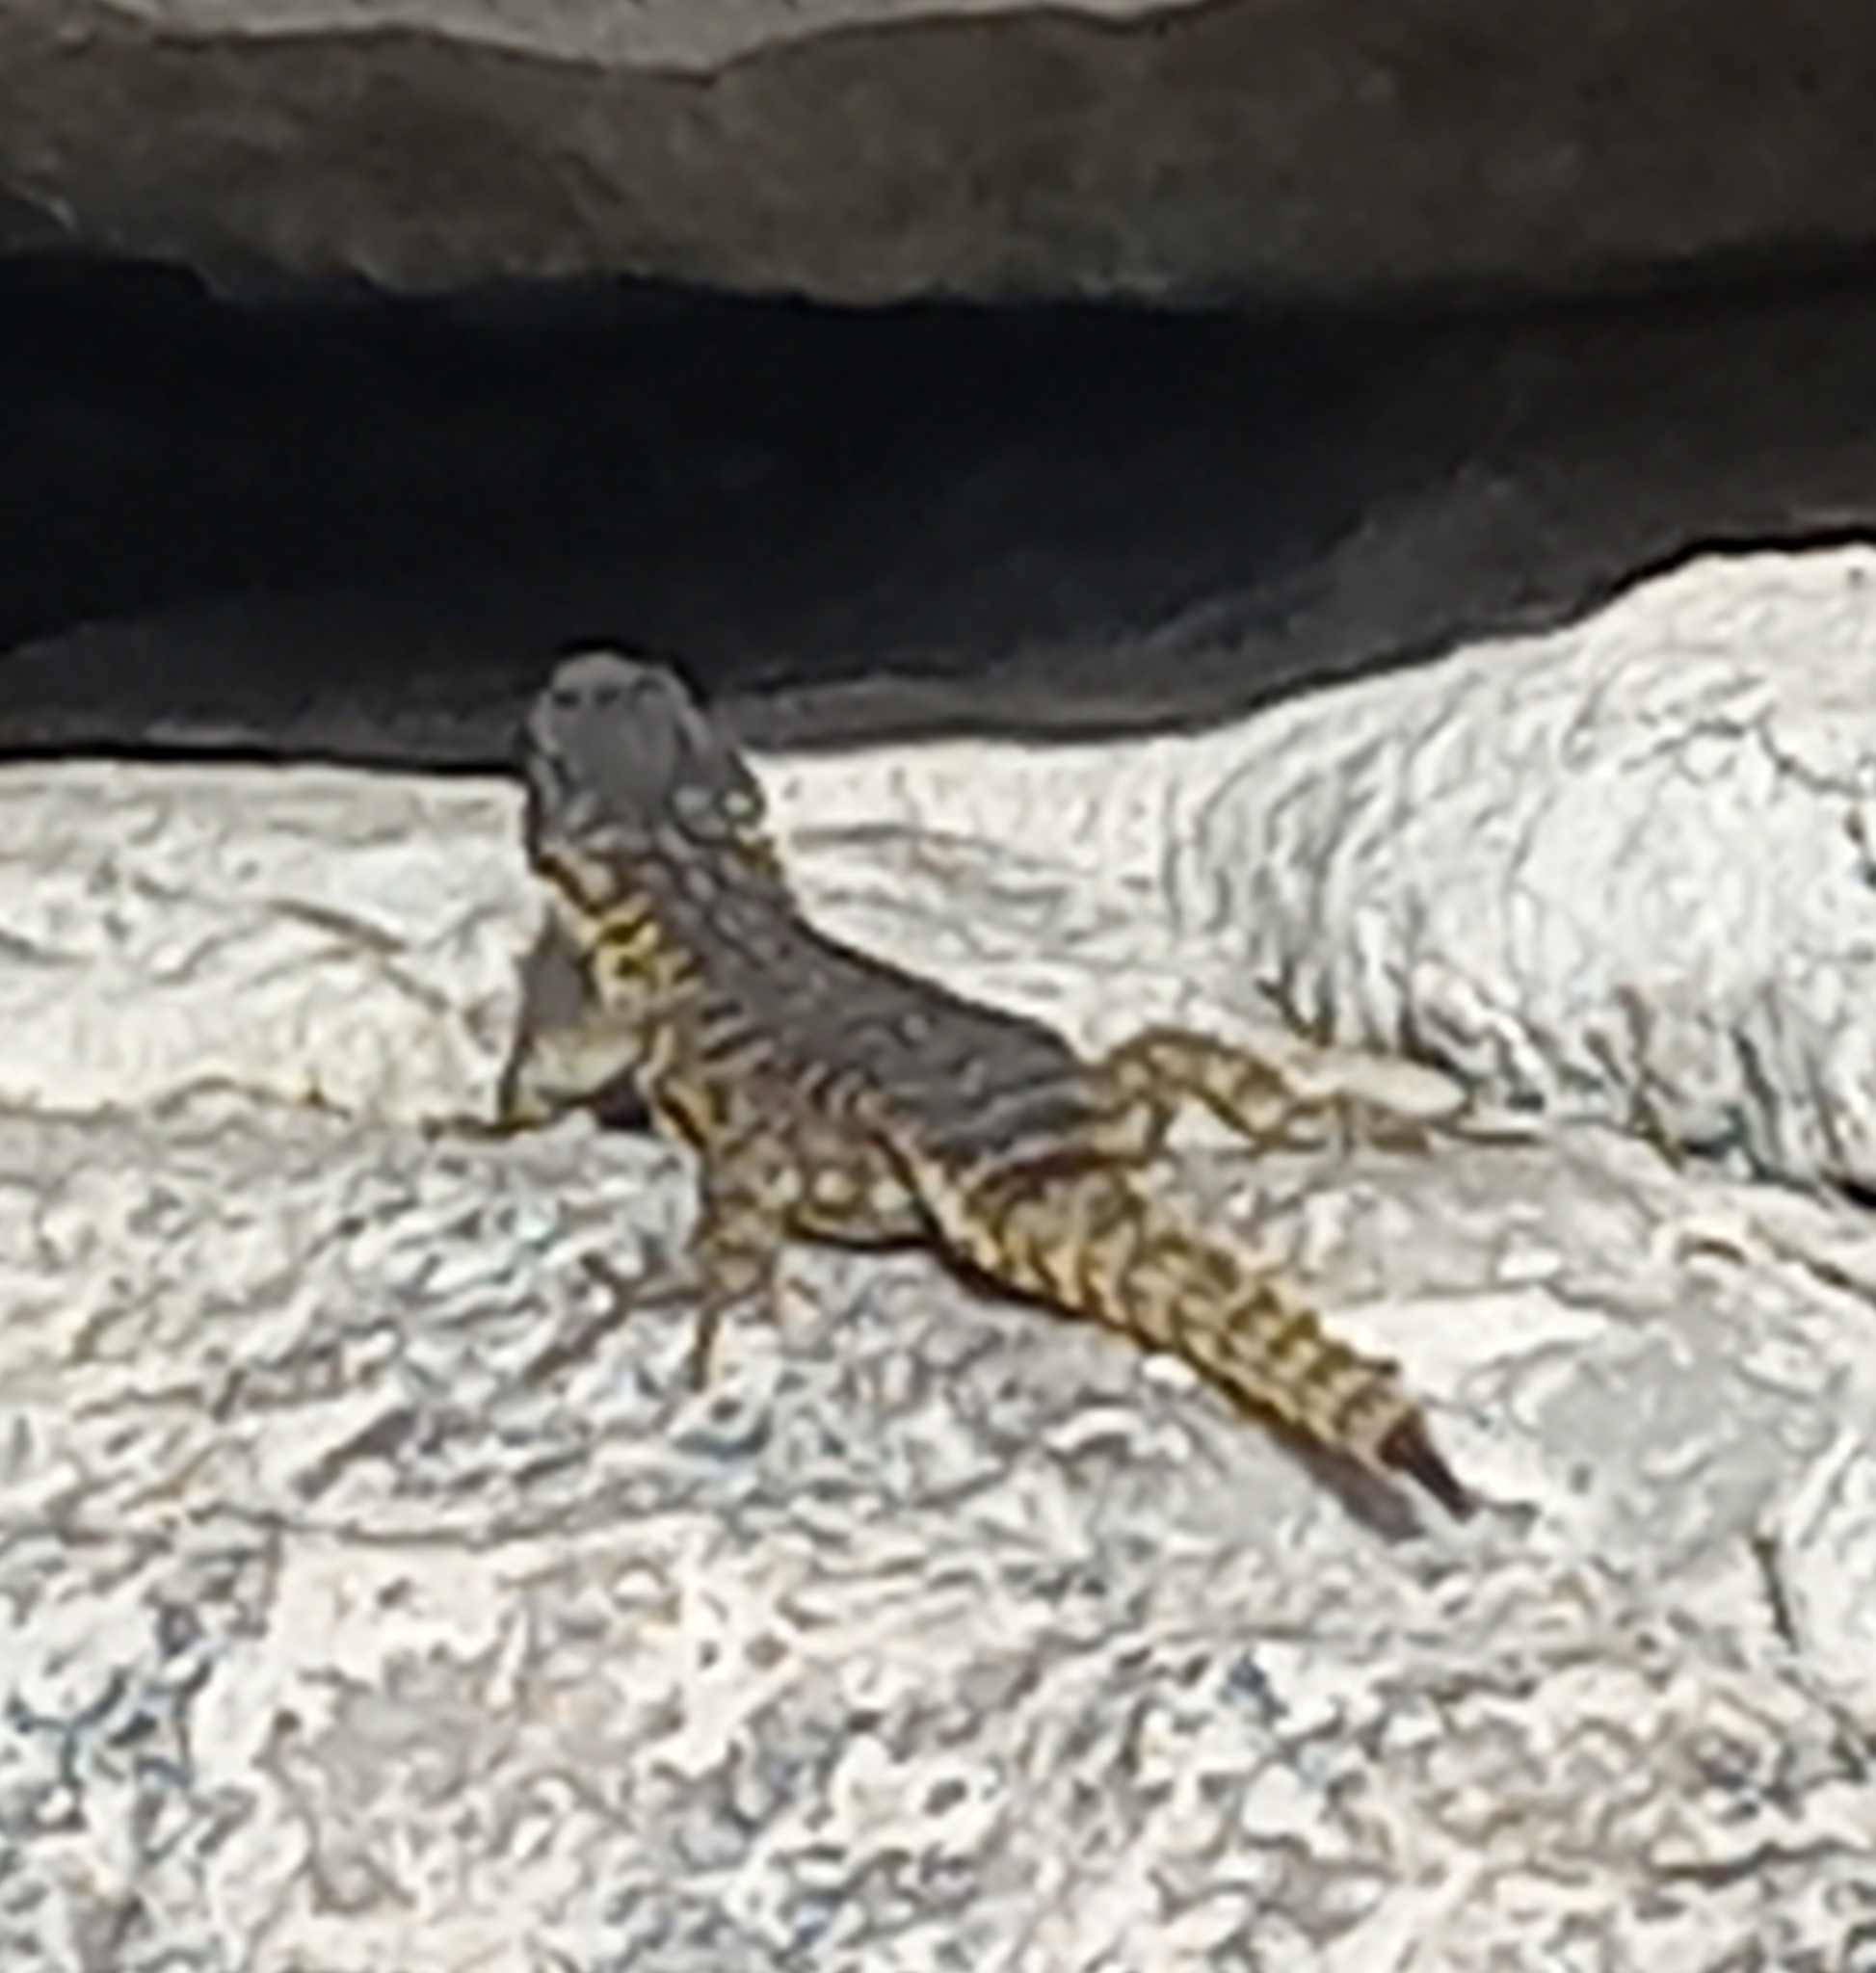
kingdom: Animalia
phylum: Chordata
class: Squamata
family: Cordylidae
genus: Cordylus
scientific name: Cordylus cordylus
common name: Cape girdled lizard
